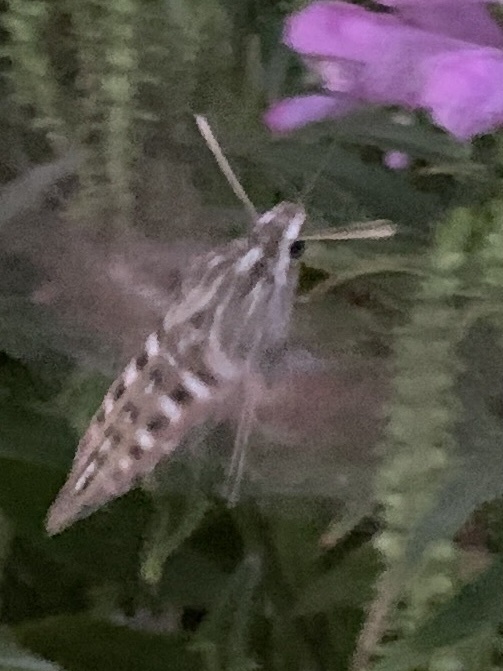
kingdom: Animalia
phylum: Arthropoda
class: Insecta
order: Lepidoptera
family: Sphingidae
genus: Hyles
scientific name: Hyles lineata
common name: White-lined sphinx
